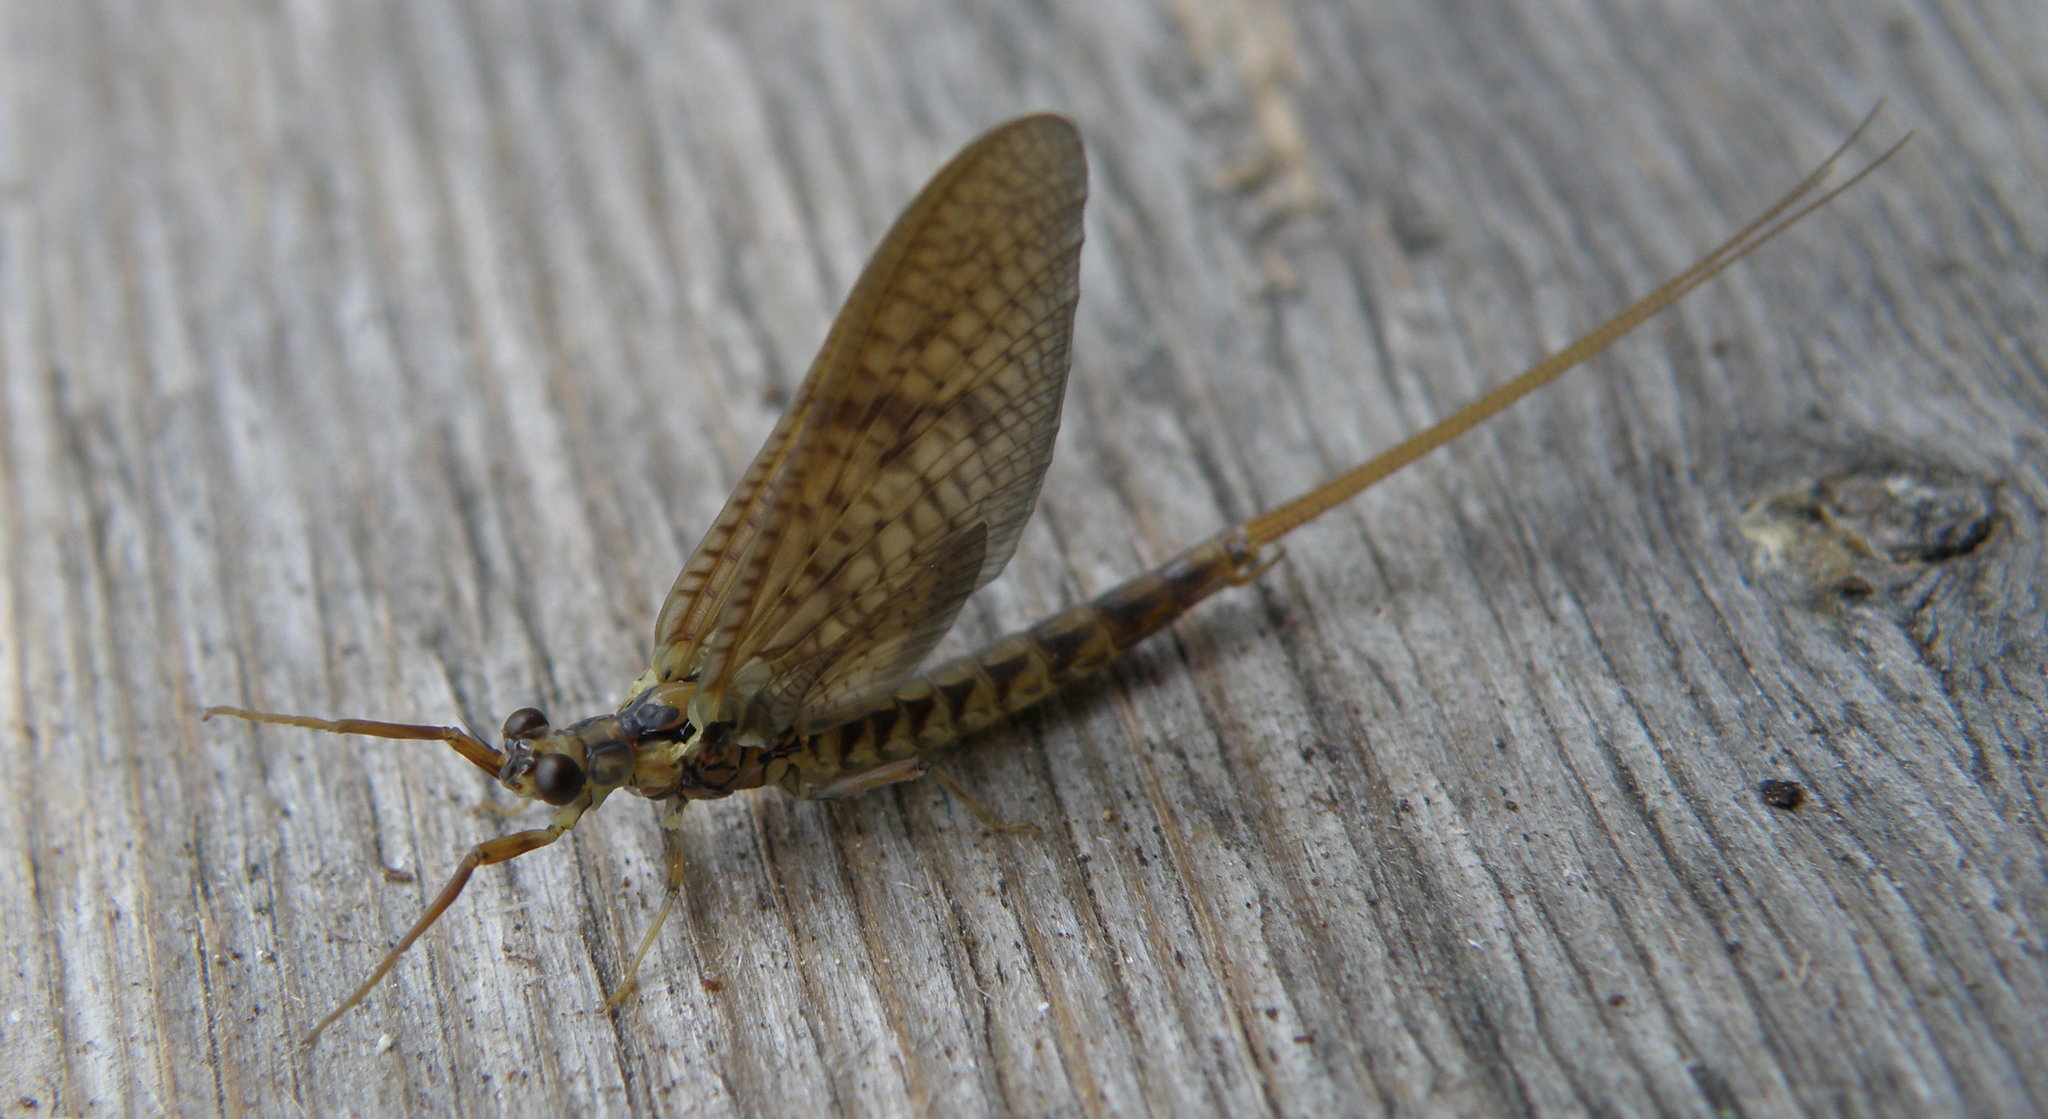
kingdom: Animalia
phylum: Arthropoda
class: Insecta
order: Ephemeroptera
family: Ephemeridae
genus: Ephemera
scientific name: Ephemera vulgata
